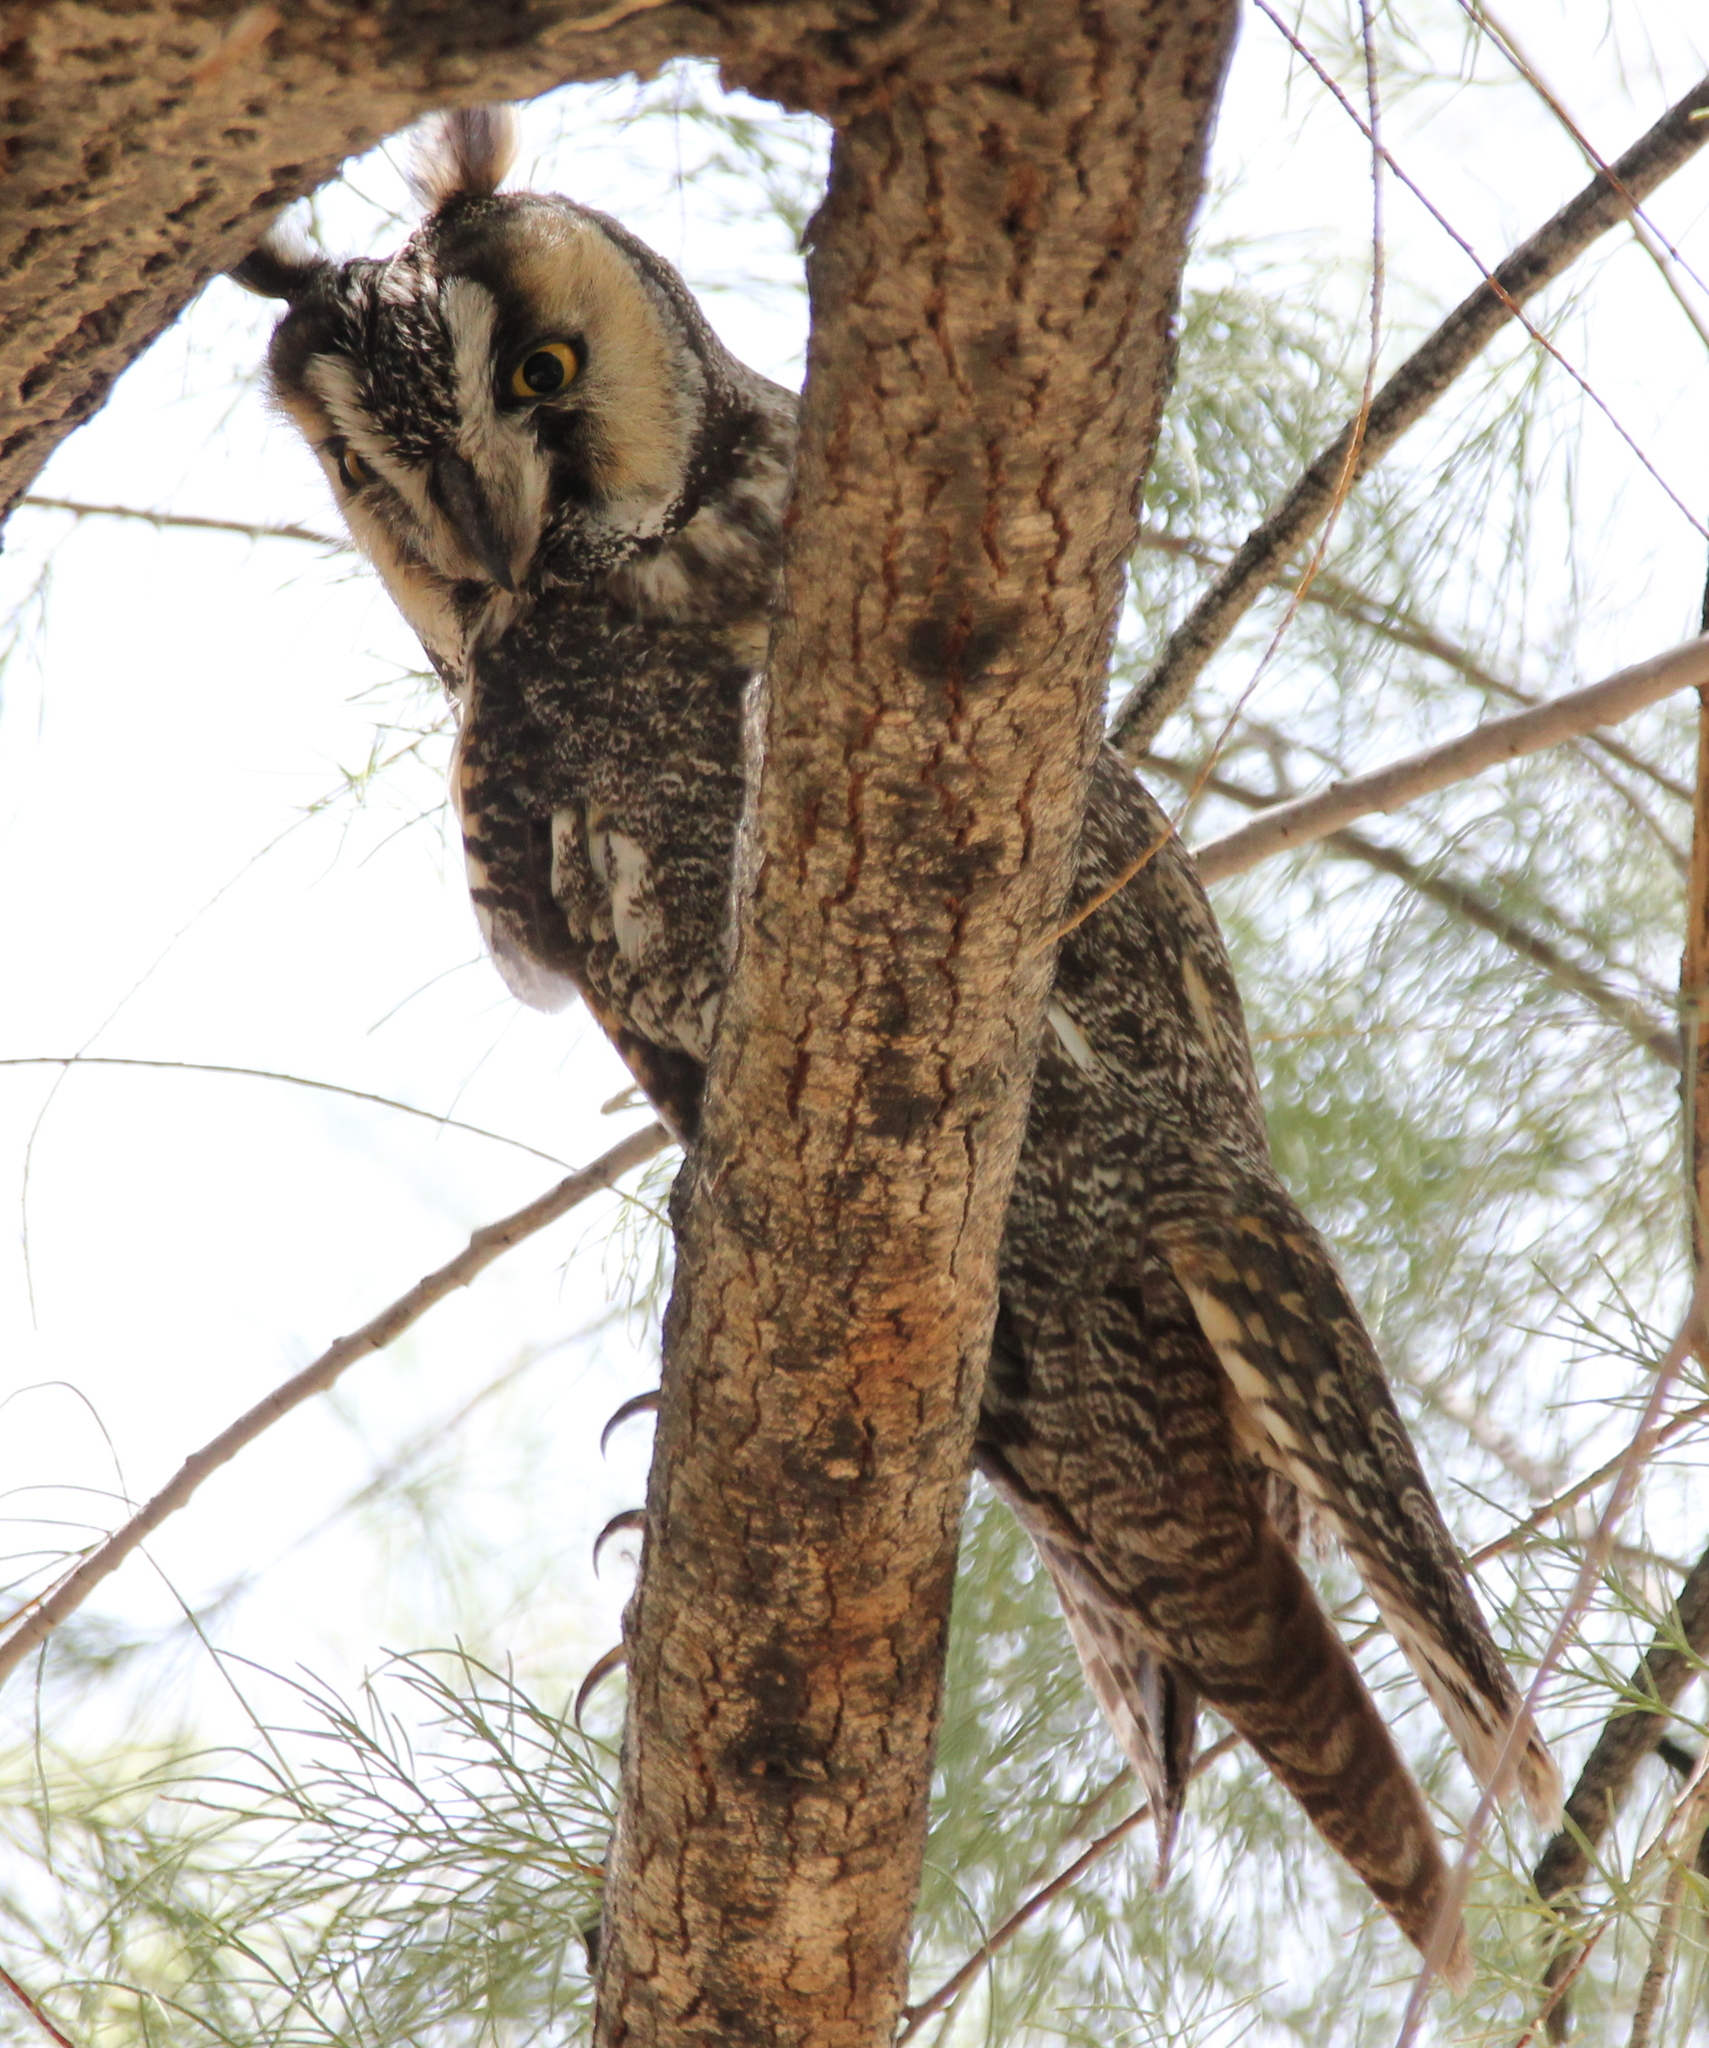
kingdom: Animalia
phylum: Chordata
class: Aves
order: Strigiformes
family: Strigidae
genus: Asio
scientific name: Asio otus
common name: Long-eared owl
